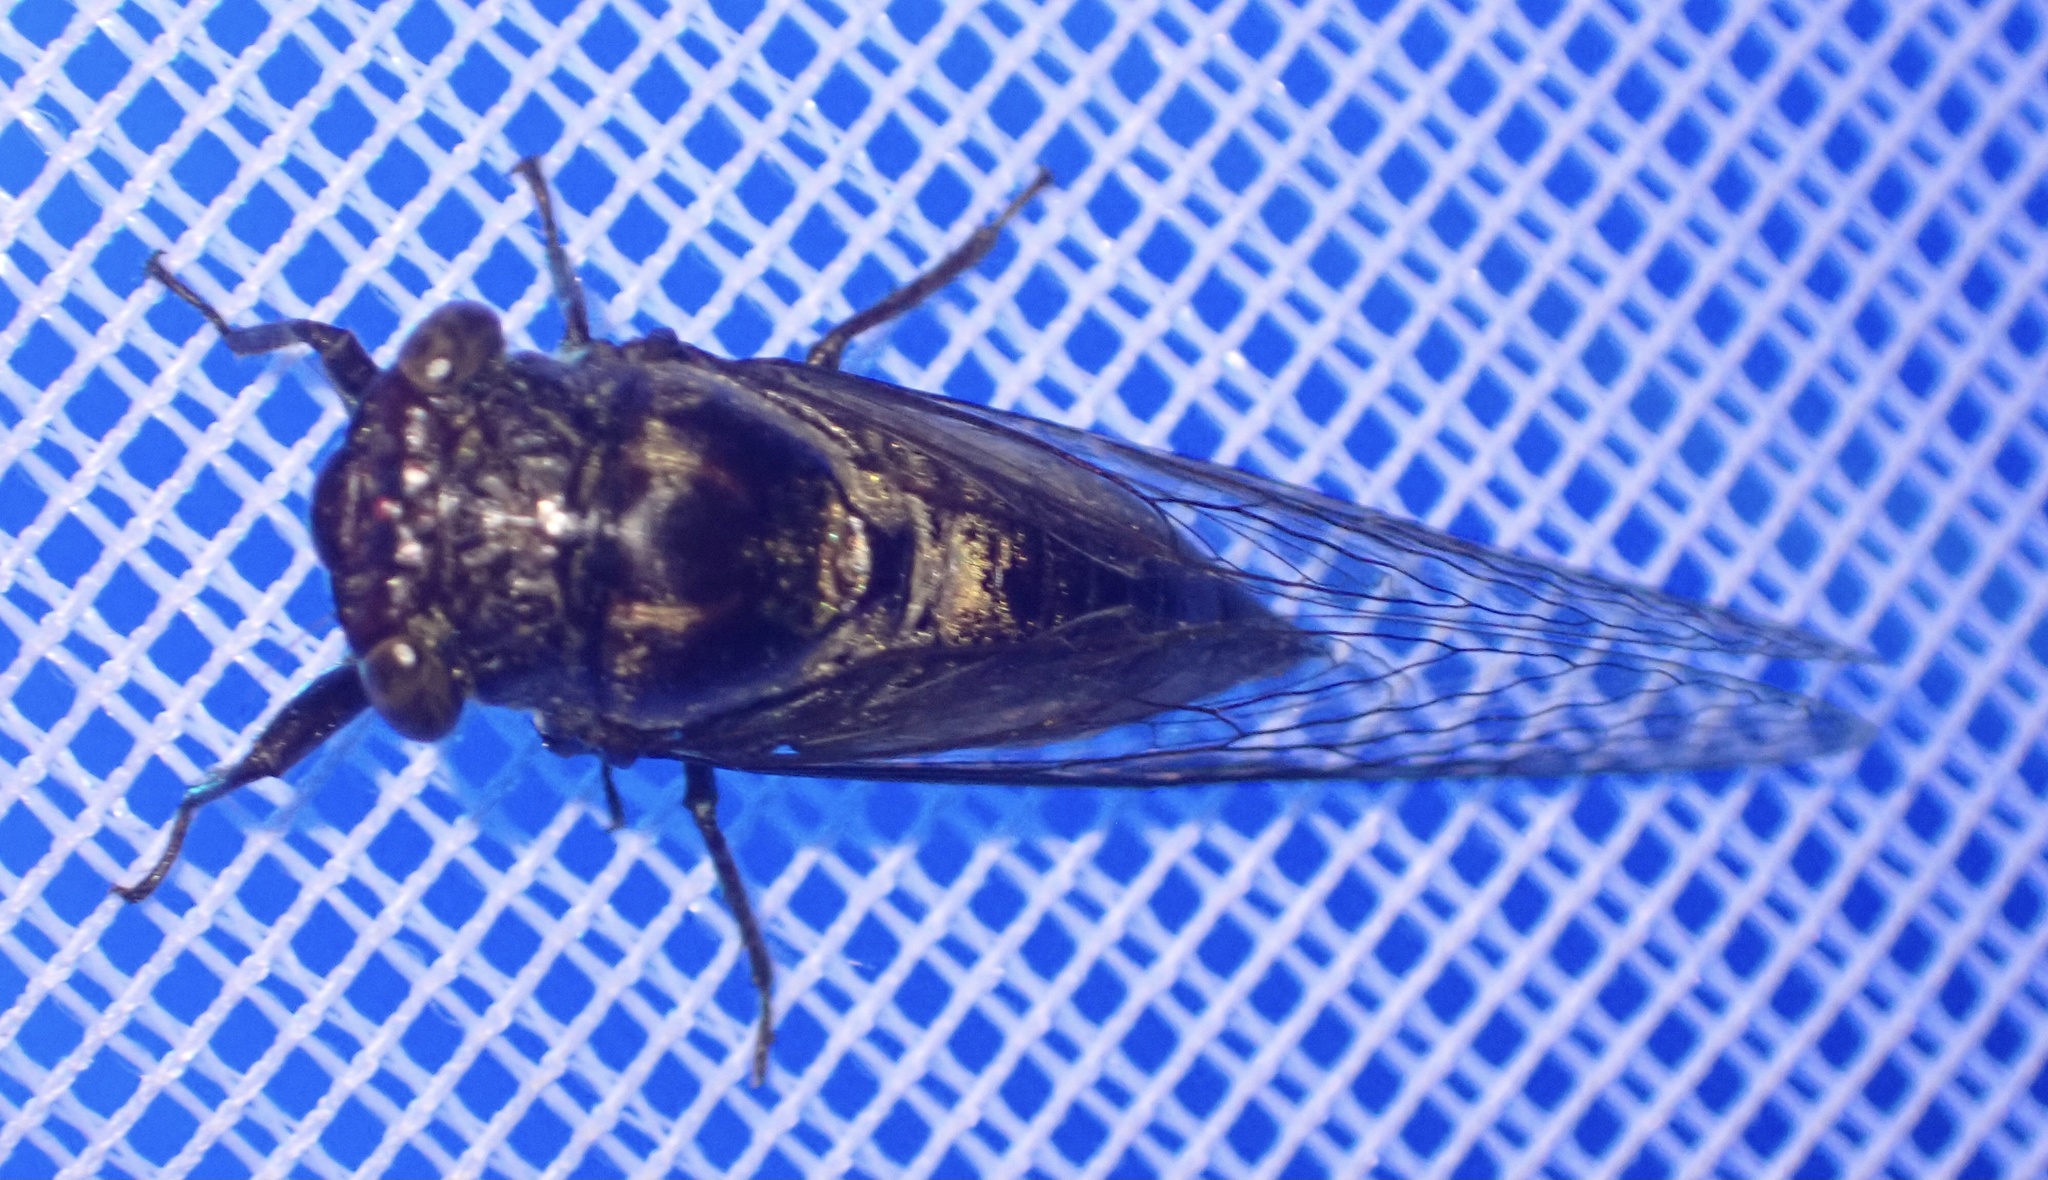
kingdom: Animalia
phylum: Arthropoda
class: Insecta
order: Hemiptera
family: Cicadidae
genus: Trismarcha
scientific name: Trismarcha ferruginosa
